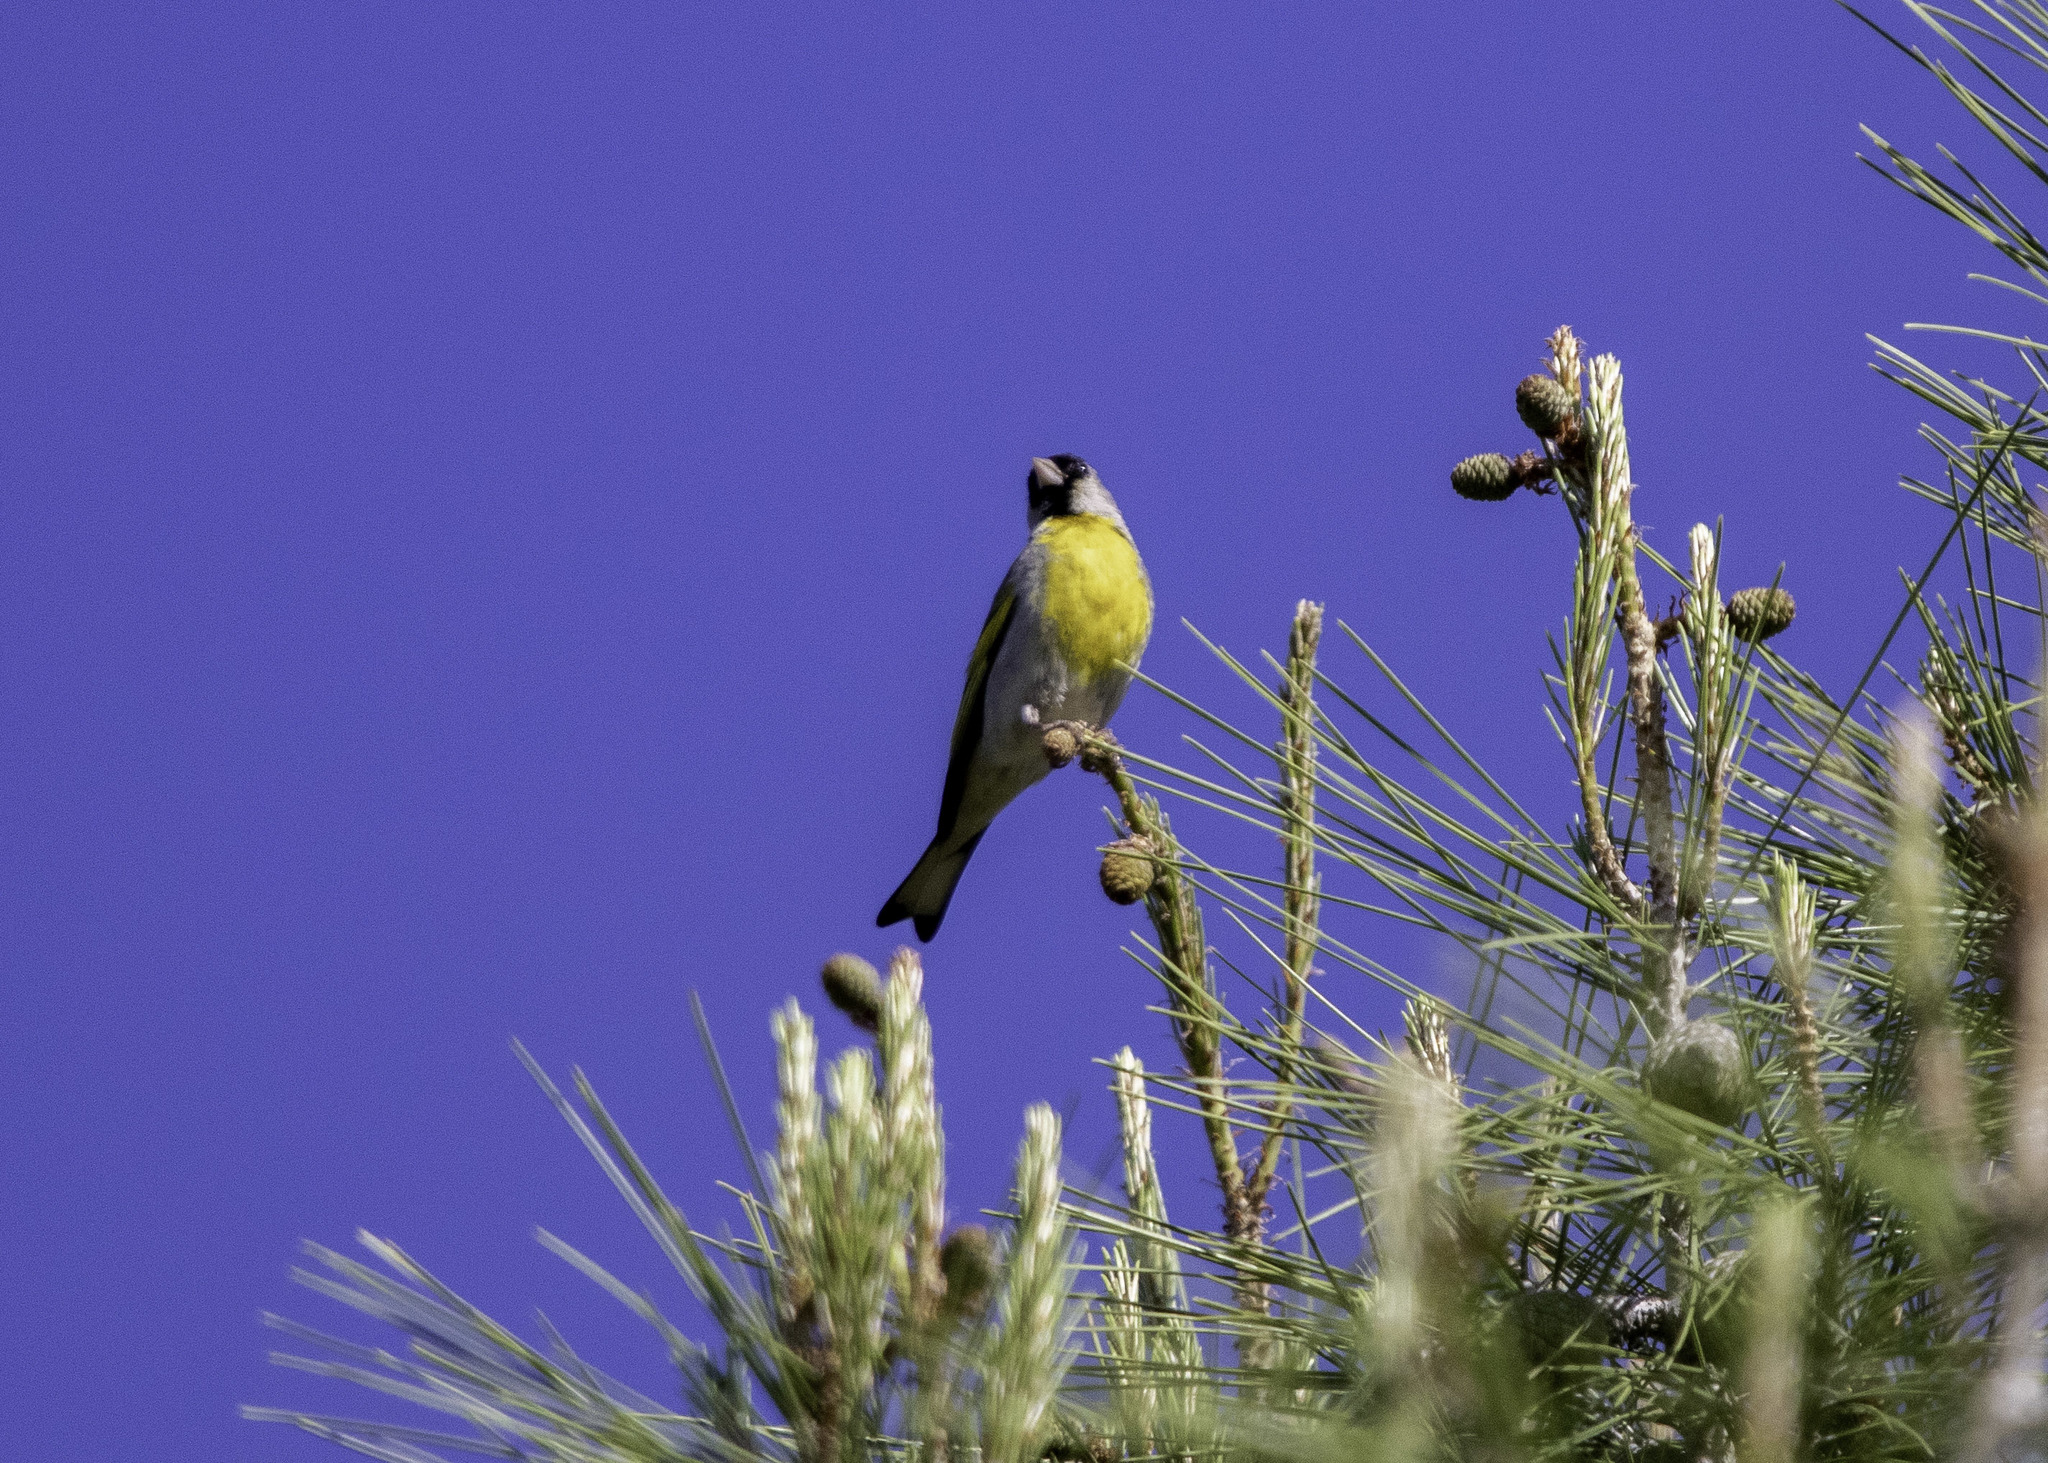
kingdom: Animalia
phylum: Chordata
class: Aves
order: Passeriformes
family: Fringillidae
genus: Spinus
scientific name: Spinus lawrencei
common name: Lawrence's goldfinch
